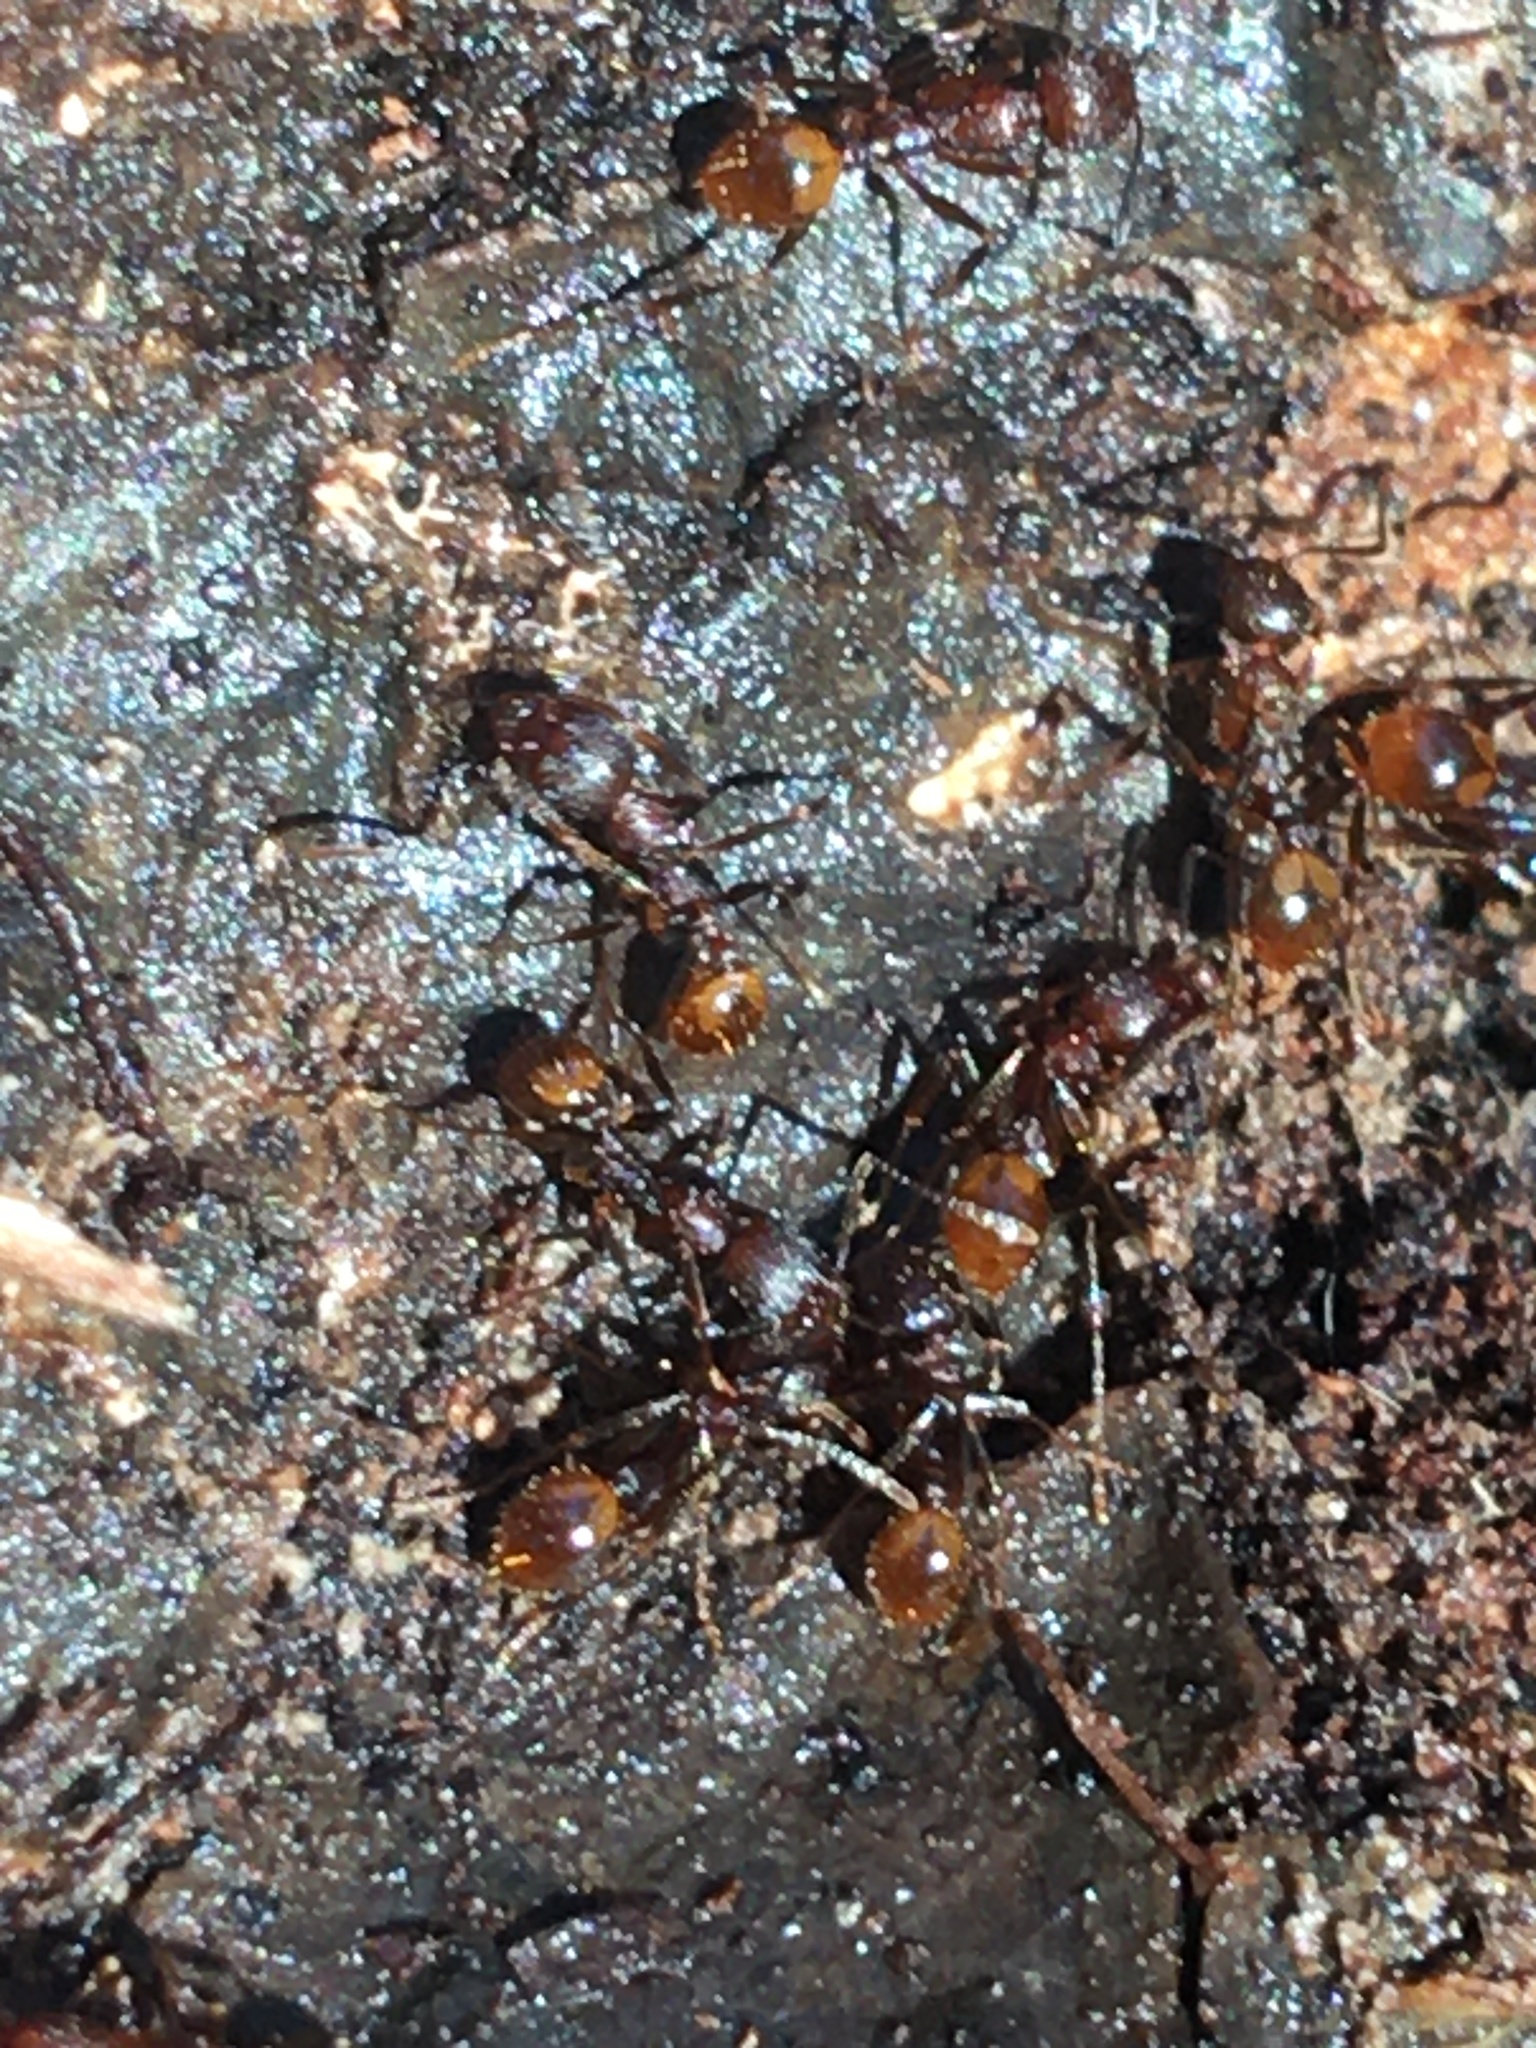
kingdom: Animalia
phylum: Arthropoda
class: Insecta
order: Hymenoptera
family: Formicidae
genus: Aphaenogaster
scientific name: Aphaenogaster fulva
